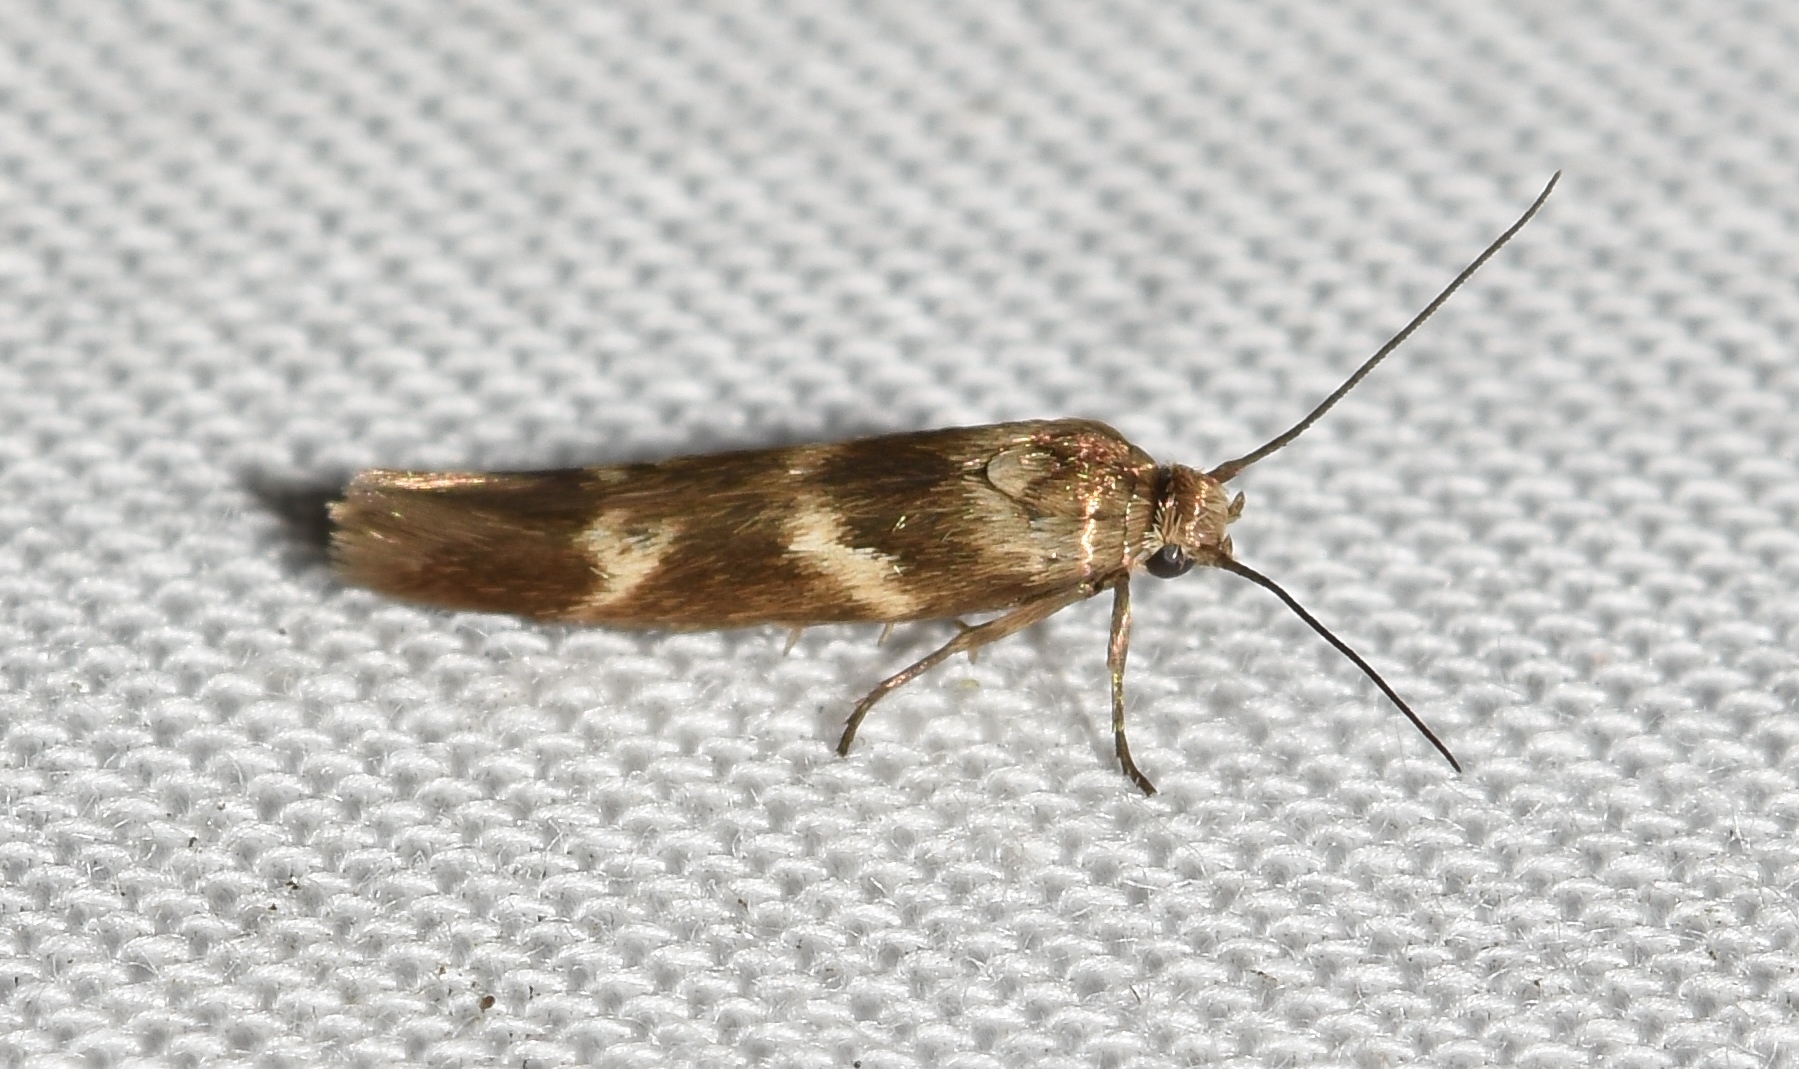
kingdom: Animalia
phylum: Arthropoda
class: Insecta
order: Lepidoptera
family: Scythrididae
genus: Scythris
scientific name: Scythris trivinctella
